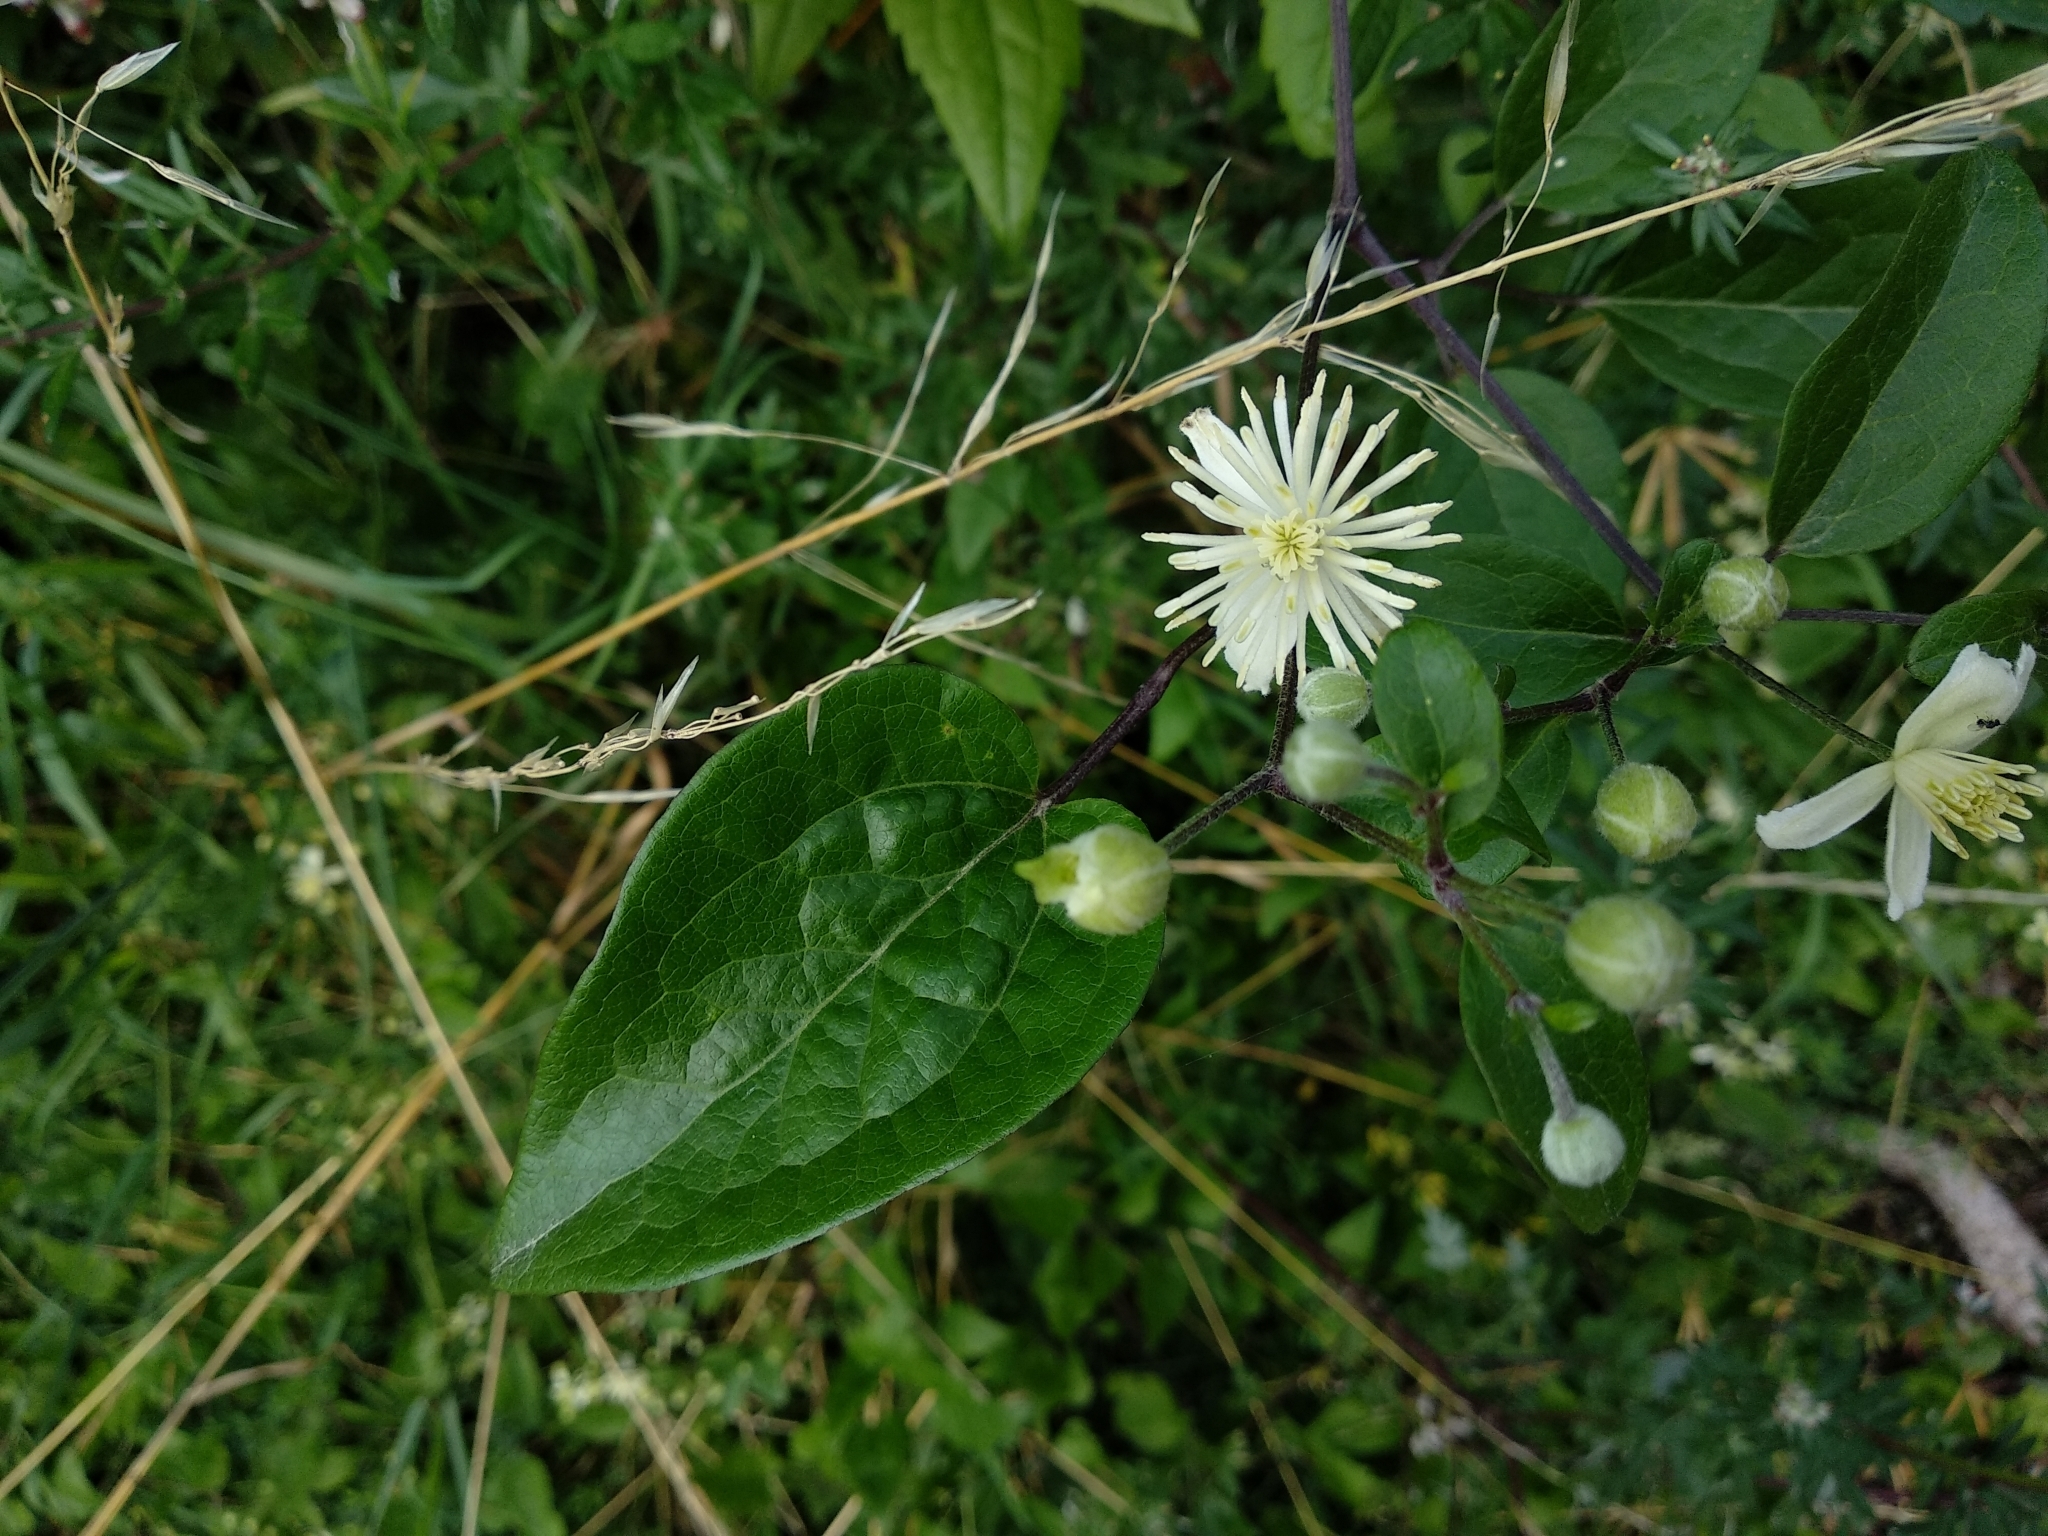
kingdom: Plantae
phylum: Tracheophyta
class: Magnoliopsida
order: Ranunculales
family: Ranunculaceae
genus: Clematis
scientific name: Clematis vitalba
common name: Evergreen clematis
